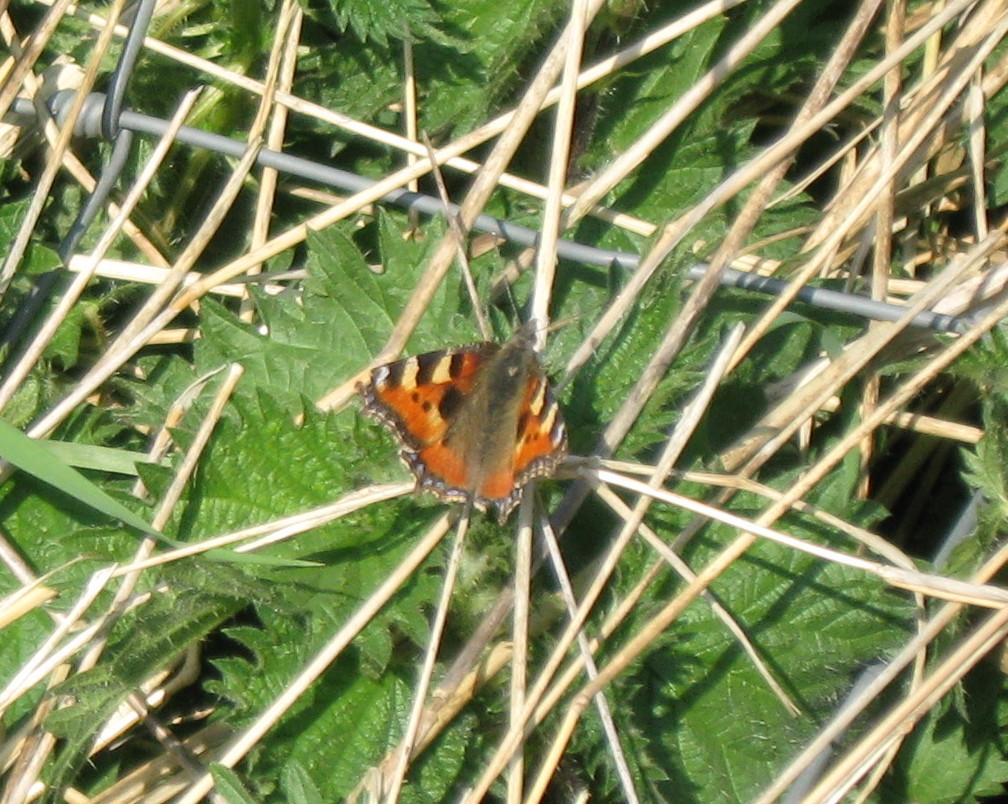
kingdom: Animalia
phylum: Arthropoda
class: Insecta
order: Lepidoptera
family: Nymphalidae
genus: Aglais
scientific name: Aglais urticae
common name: Small tortoiseshell
